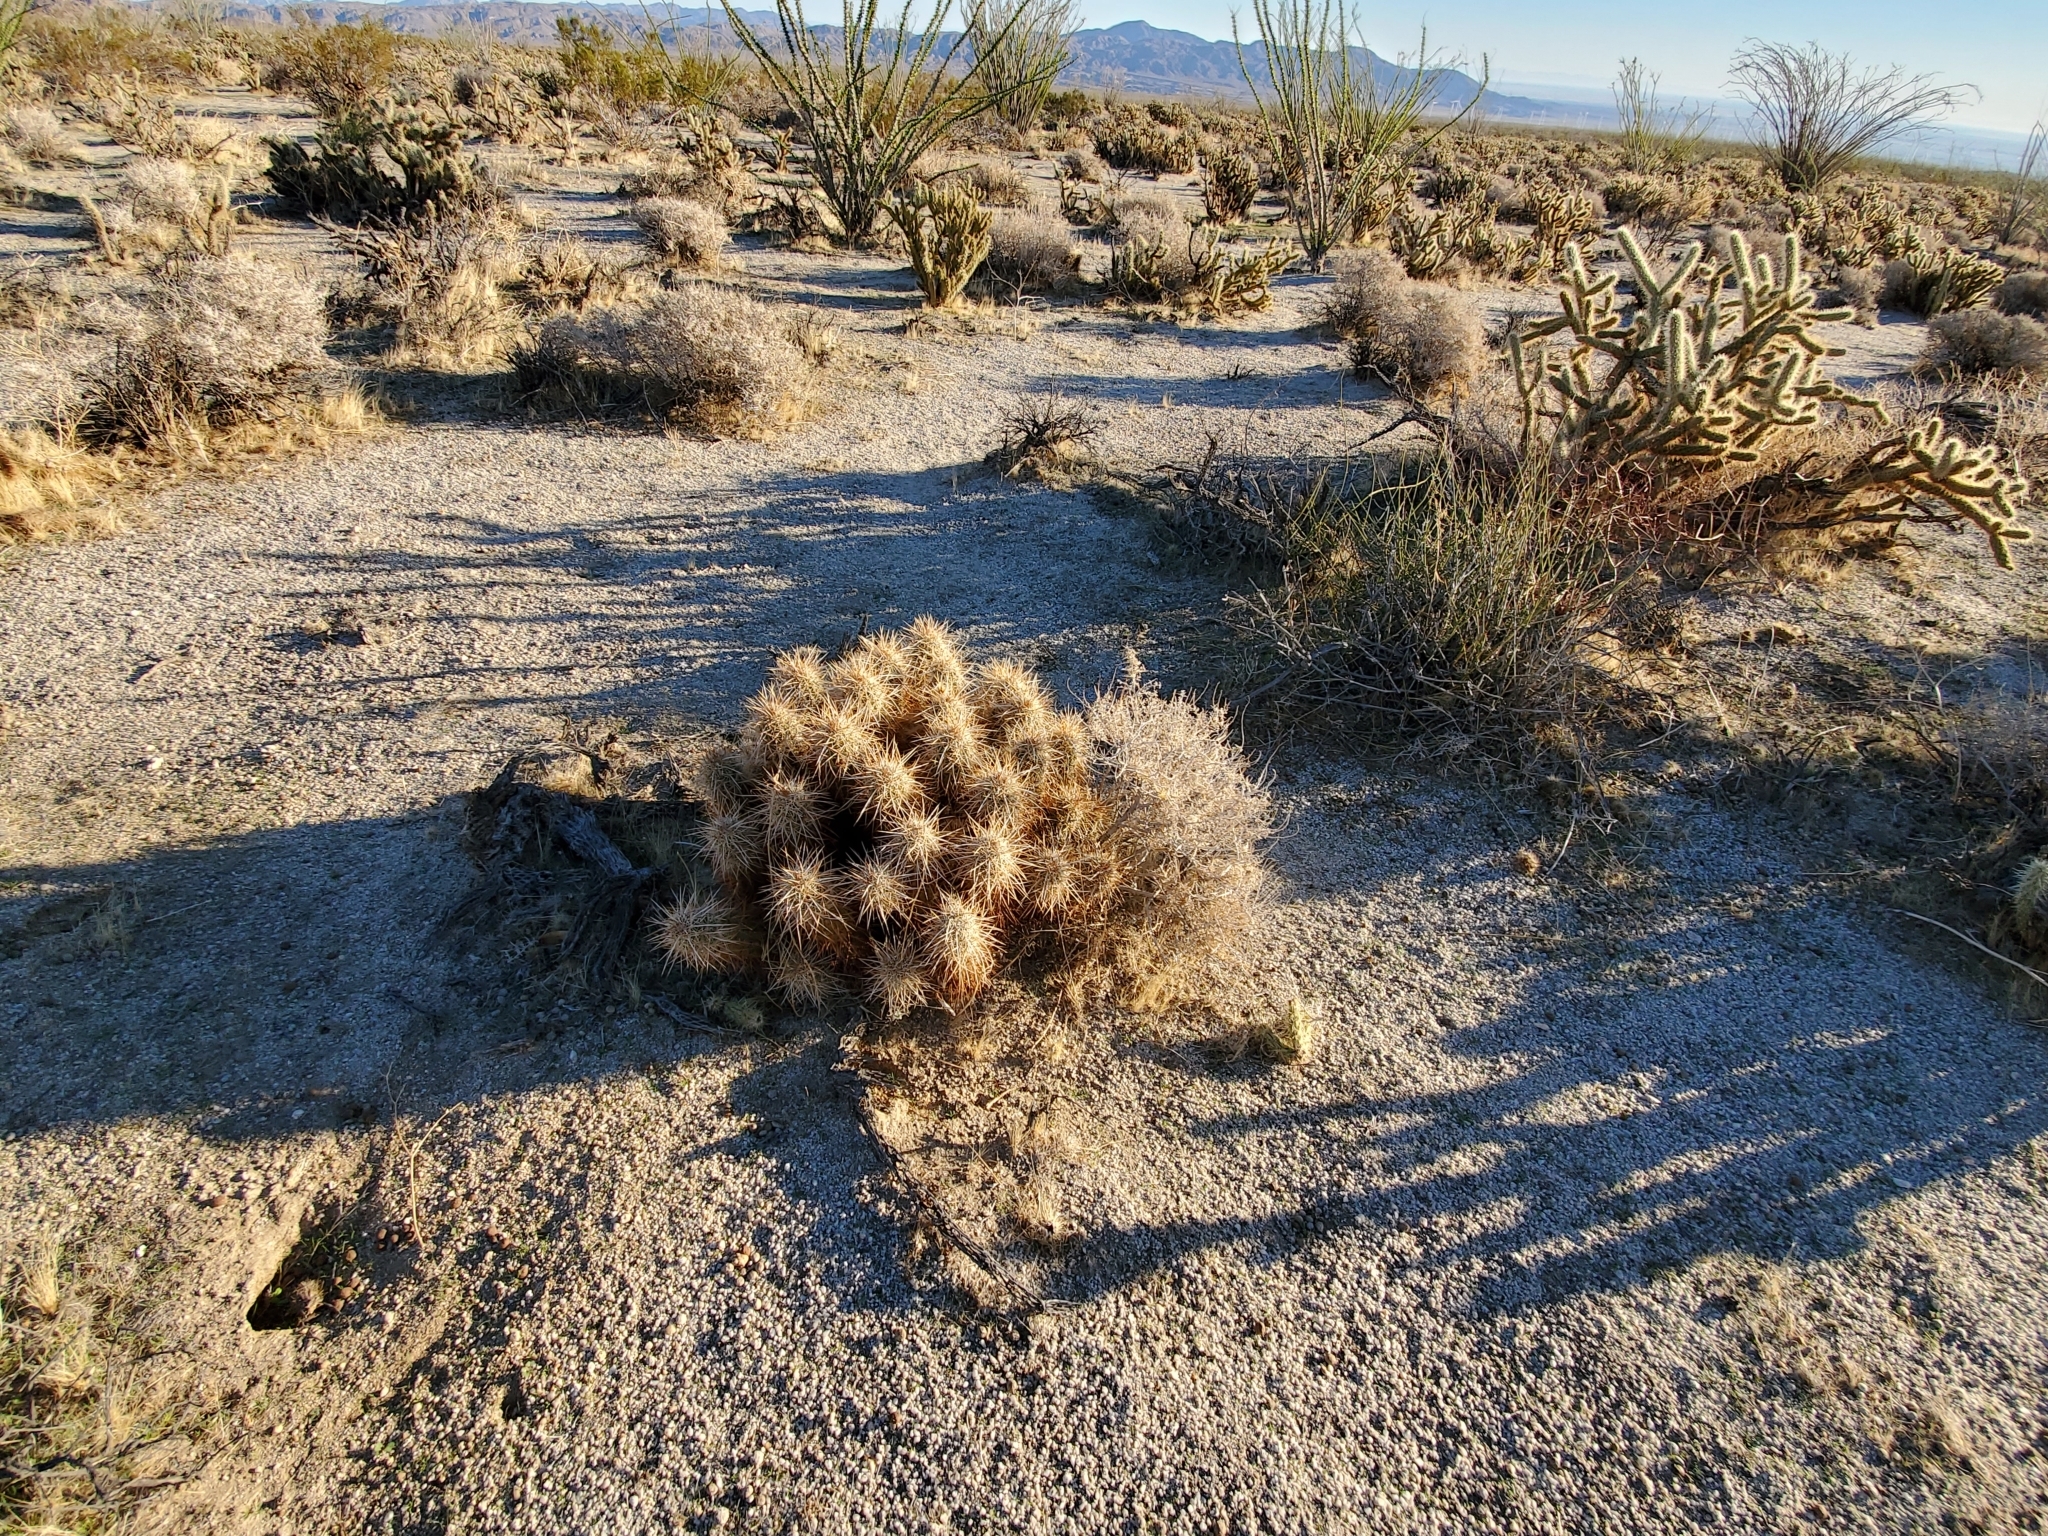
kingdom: Plantae
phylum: Tracheophyta
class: Magnoliopsida
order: Caryophyllales
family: Cactaceae
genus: Echinocereus
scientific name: Echinocereus engelmannii
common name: Engelmann's hedgehog cactus
